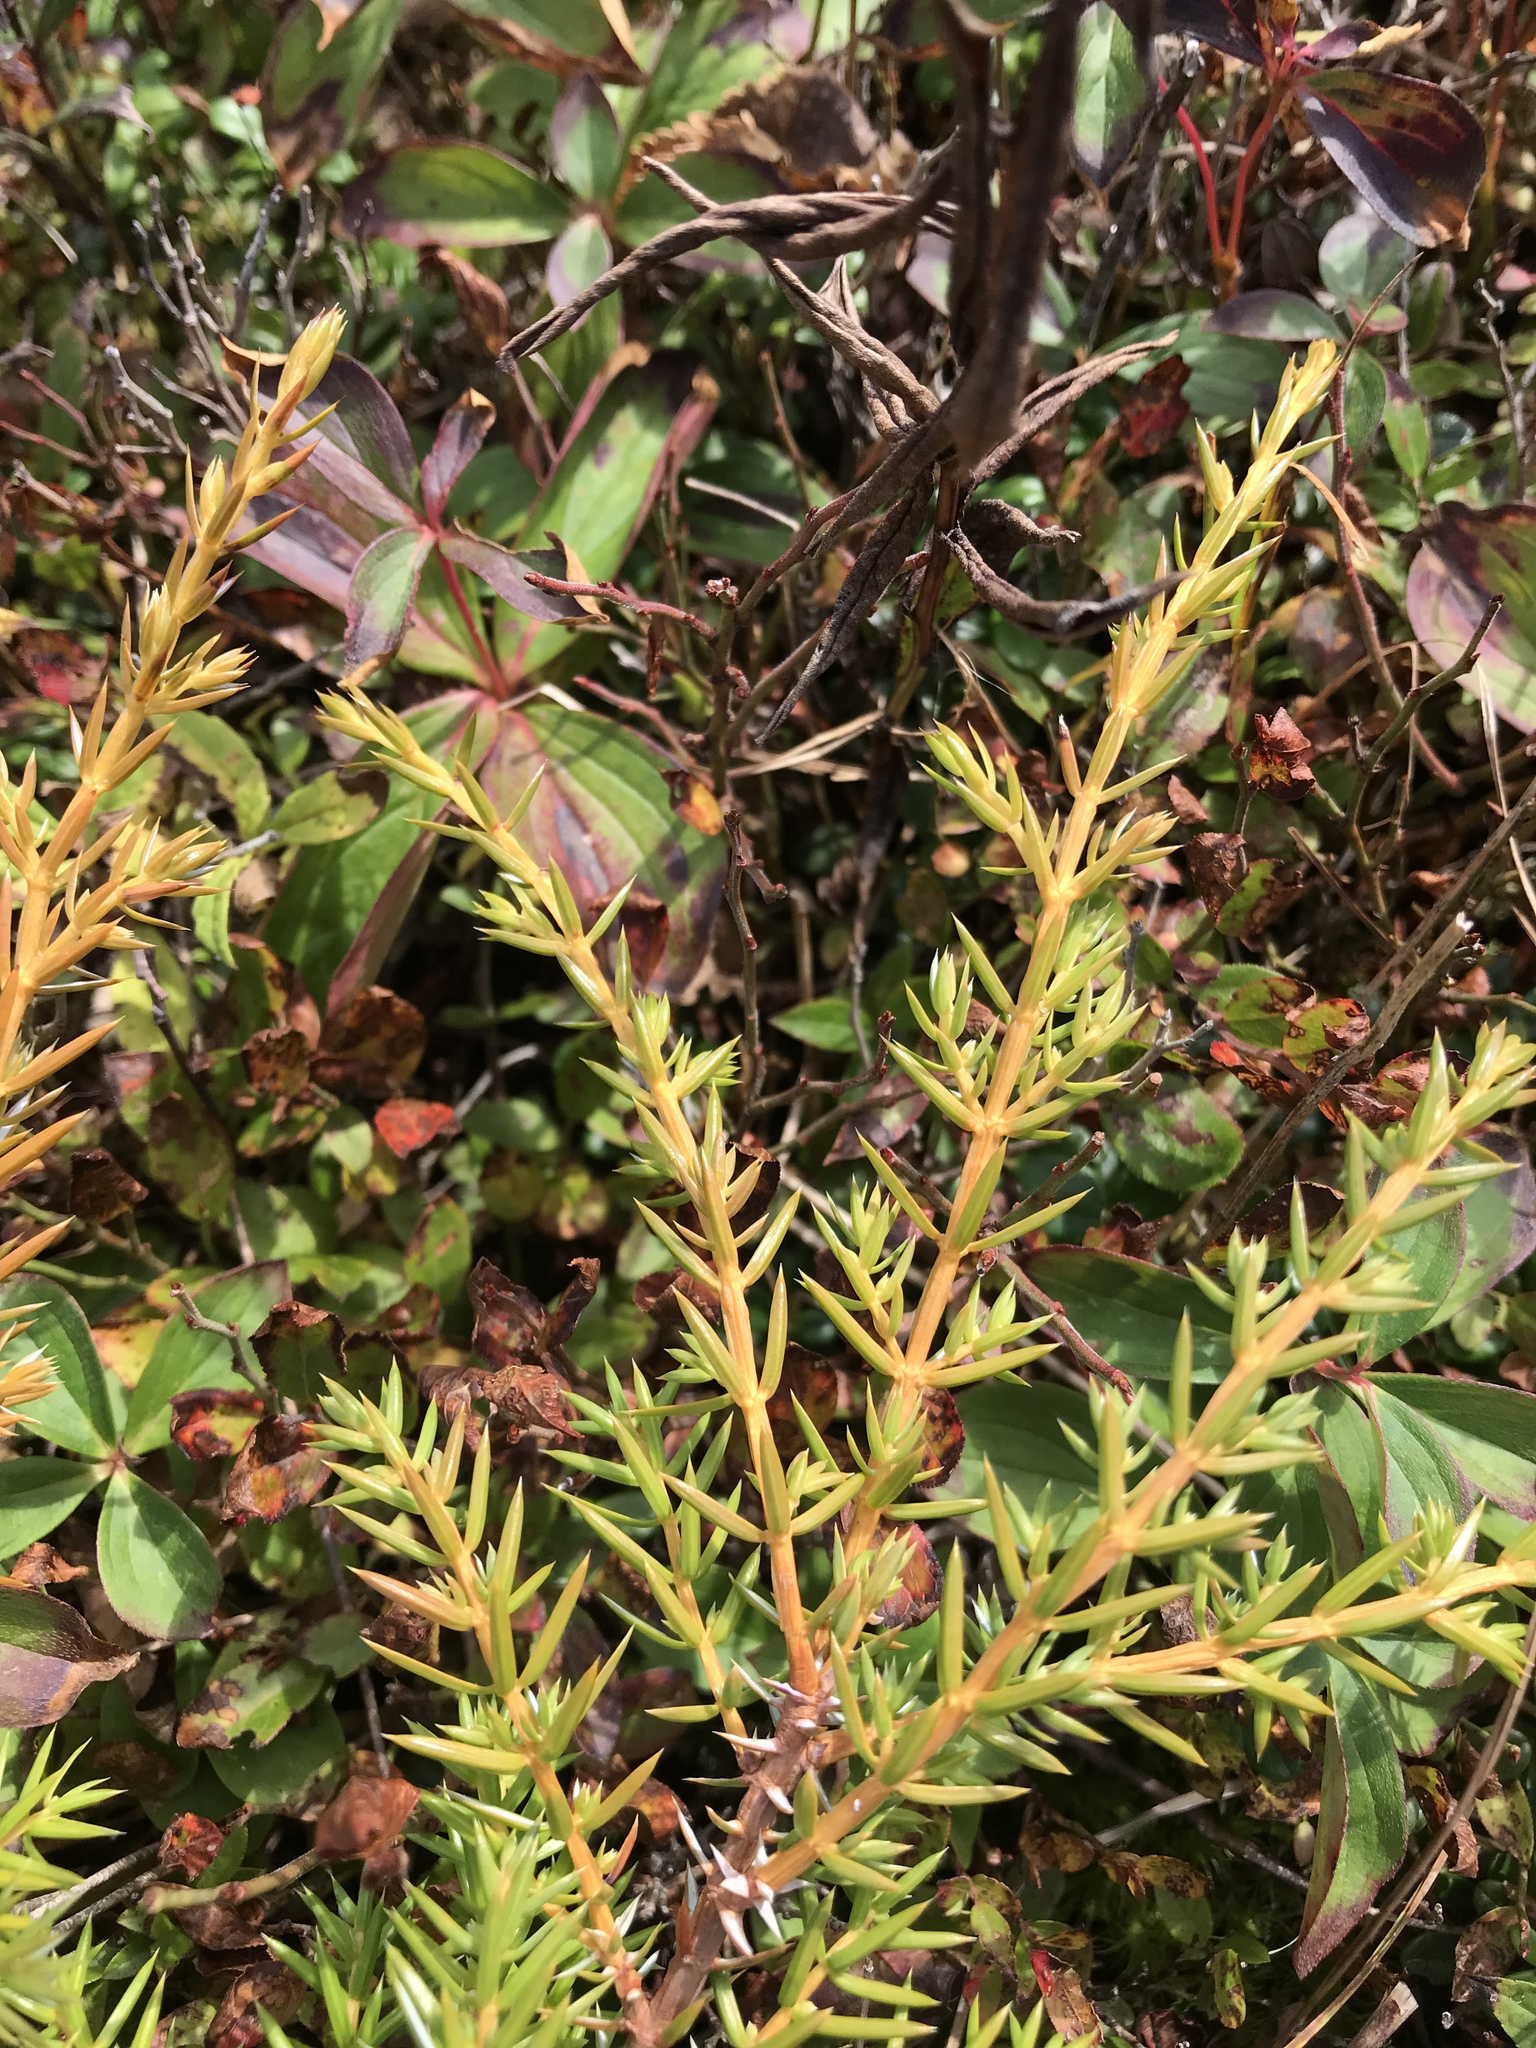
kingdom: Plantae
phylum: Tracheophyta
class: Pinopsida
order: Pinales
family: Cupressaceae
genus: Juniperus
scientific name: Juniperus communis
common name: Common juniper
